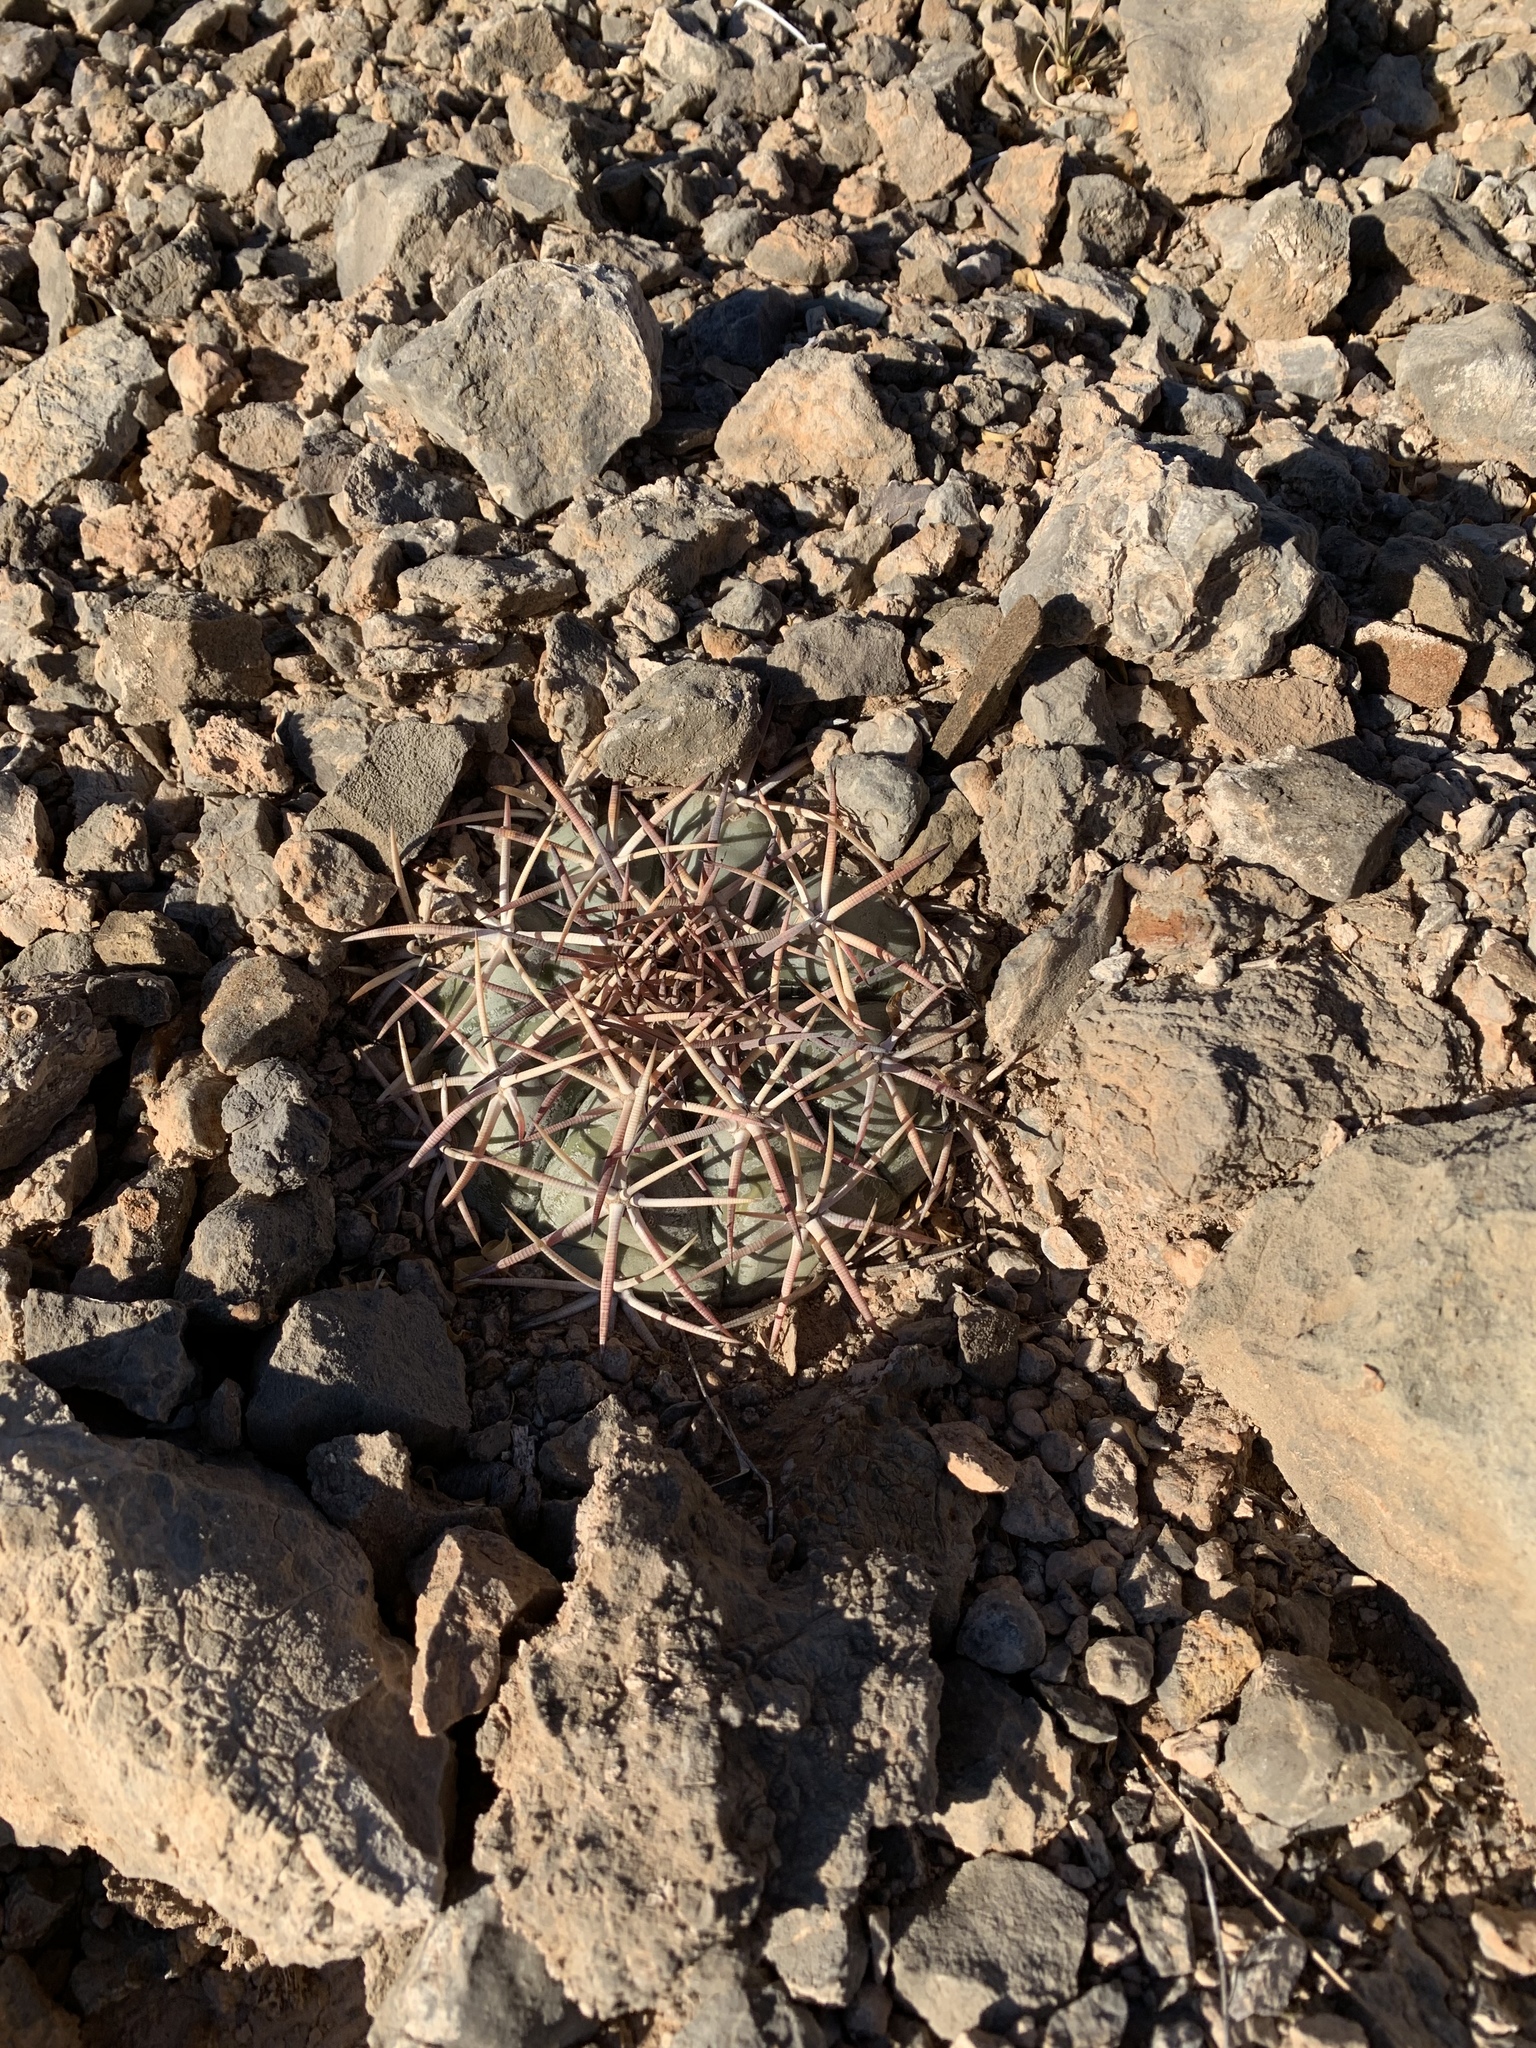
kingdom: Plantae
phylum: Tracheophyta
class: Magnoliopsida
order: Caryophyllales
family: Cactaceae
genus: Echinocactus
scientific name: Echinocactus horizonthalonius
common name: Devilshead
